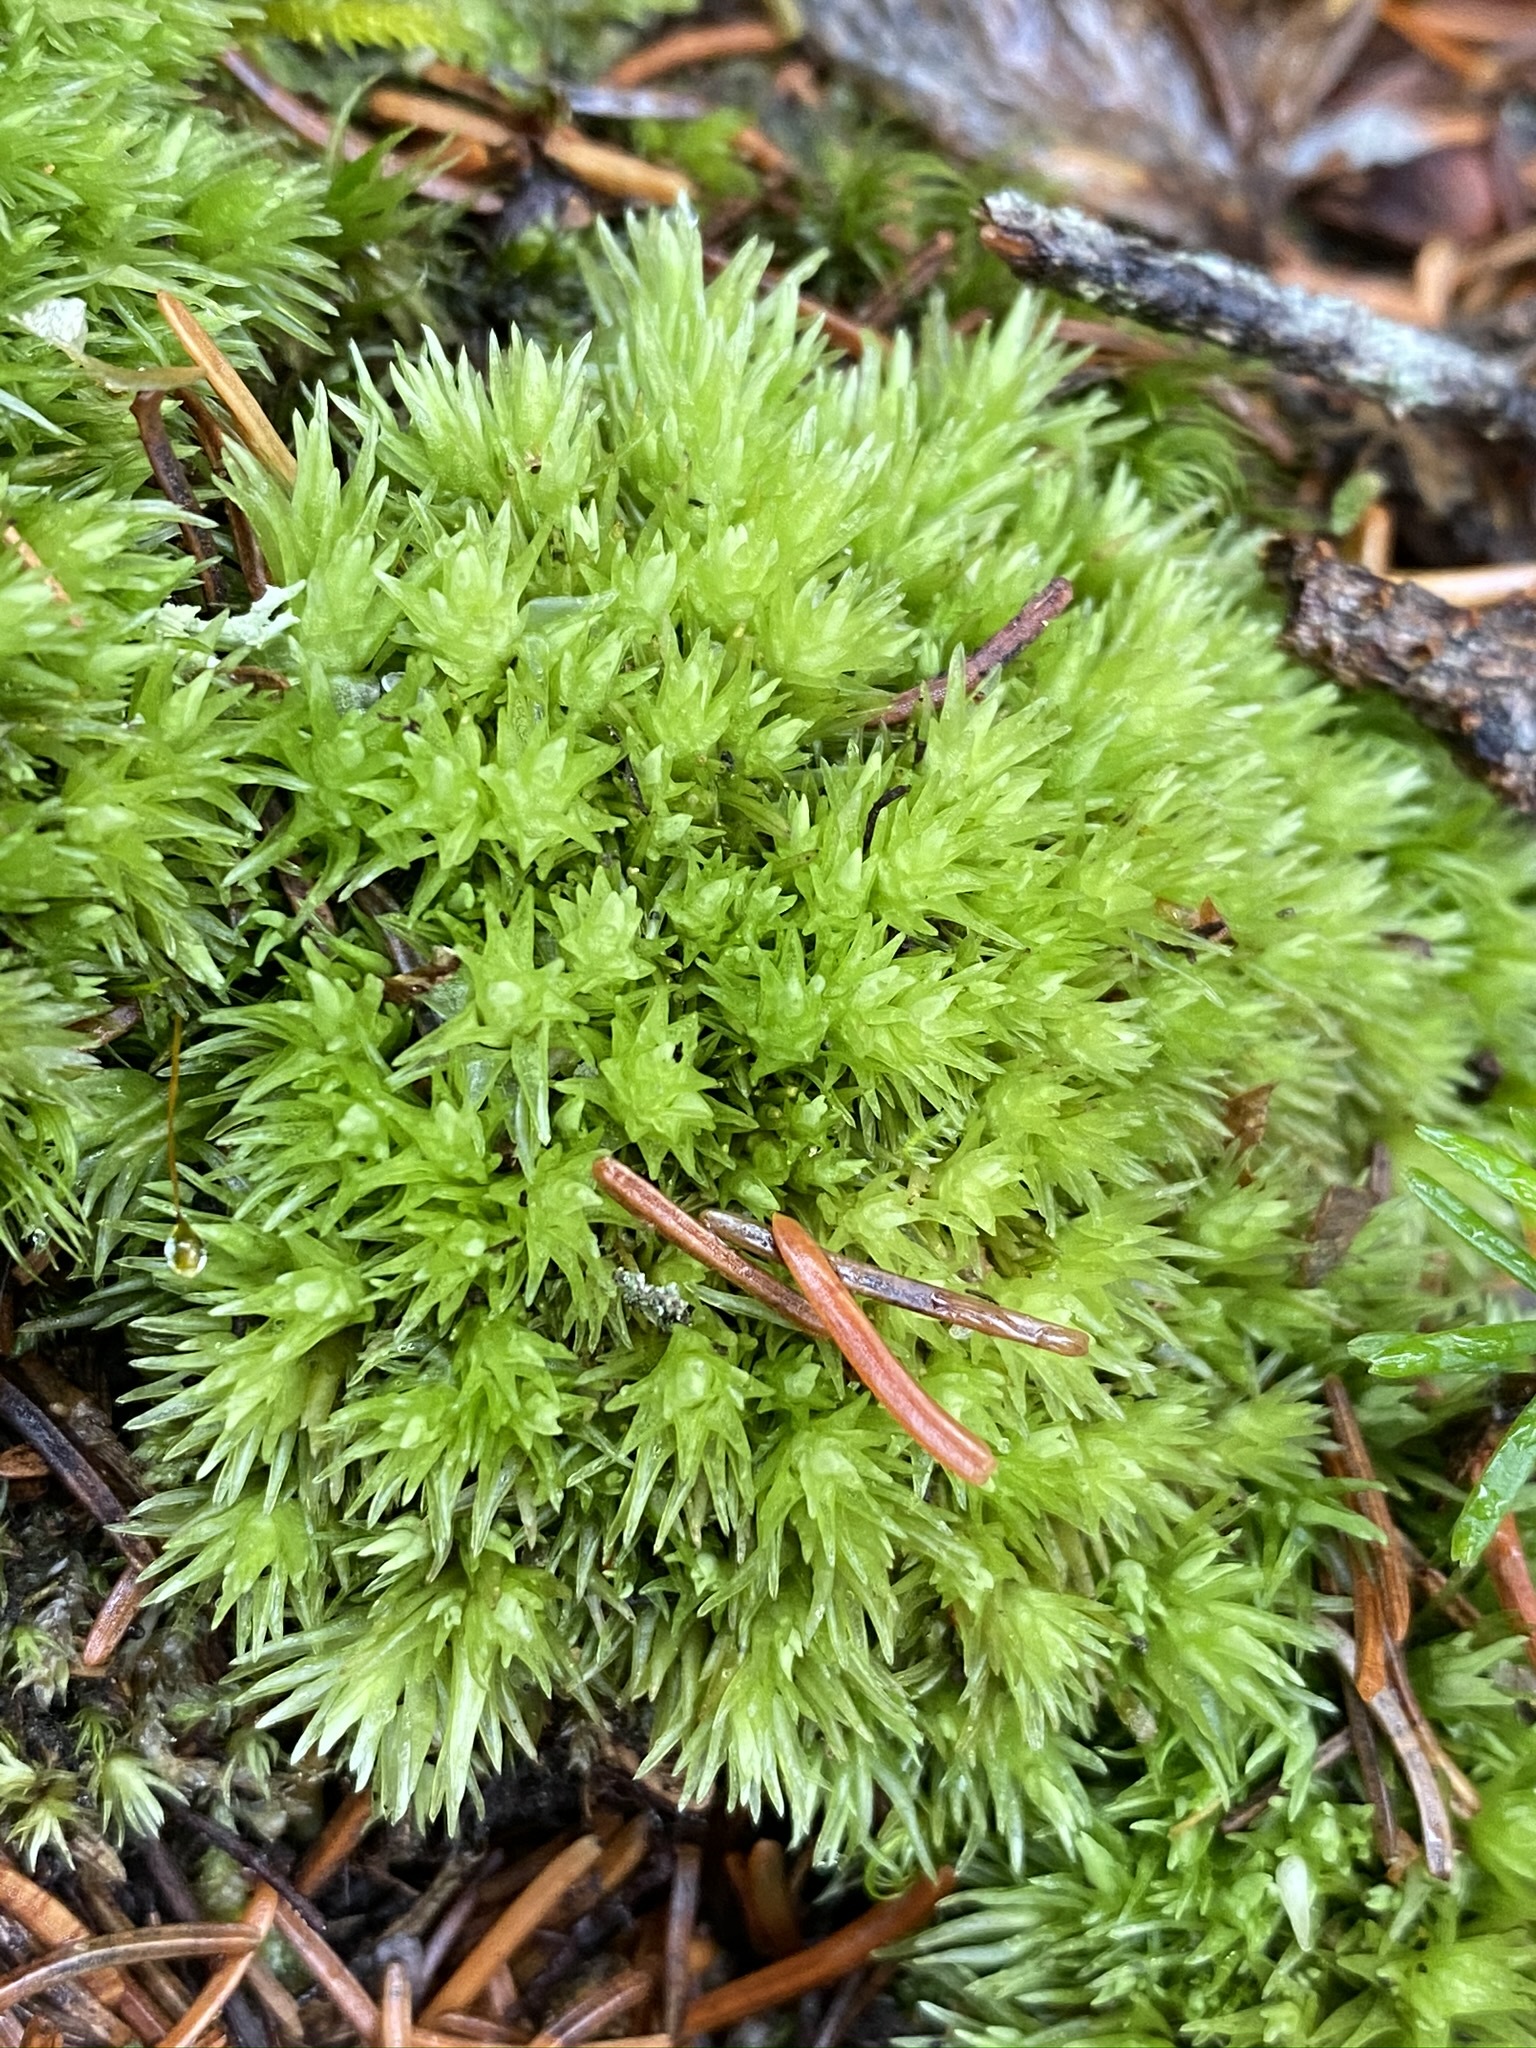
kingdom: Plantae
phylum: Bryophyta
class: Bryopsida
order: Dicranales
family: Leucobryaceae
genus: Leucobryum
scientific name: Leucobryum glaucum
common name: Large white-moss
